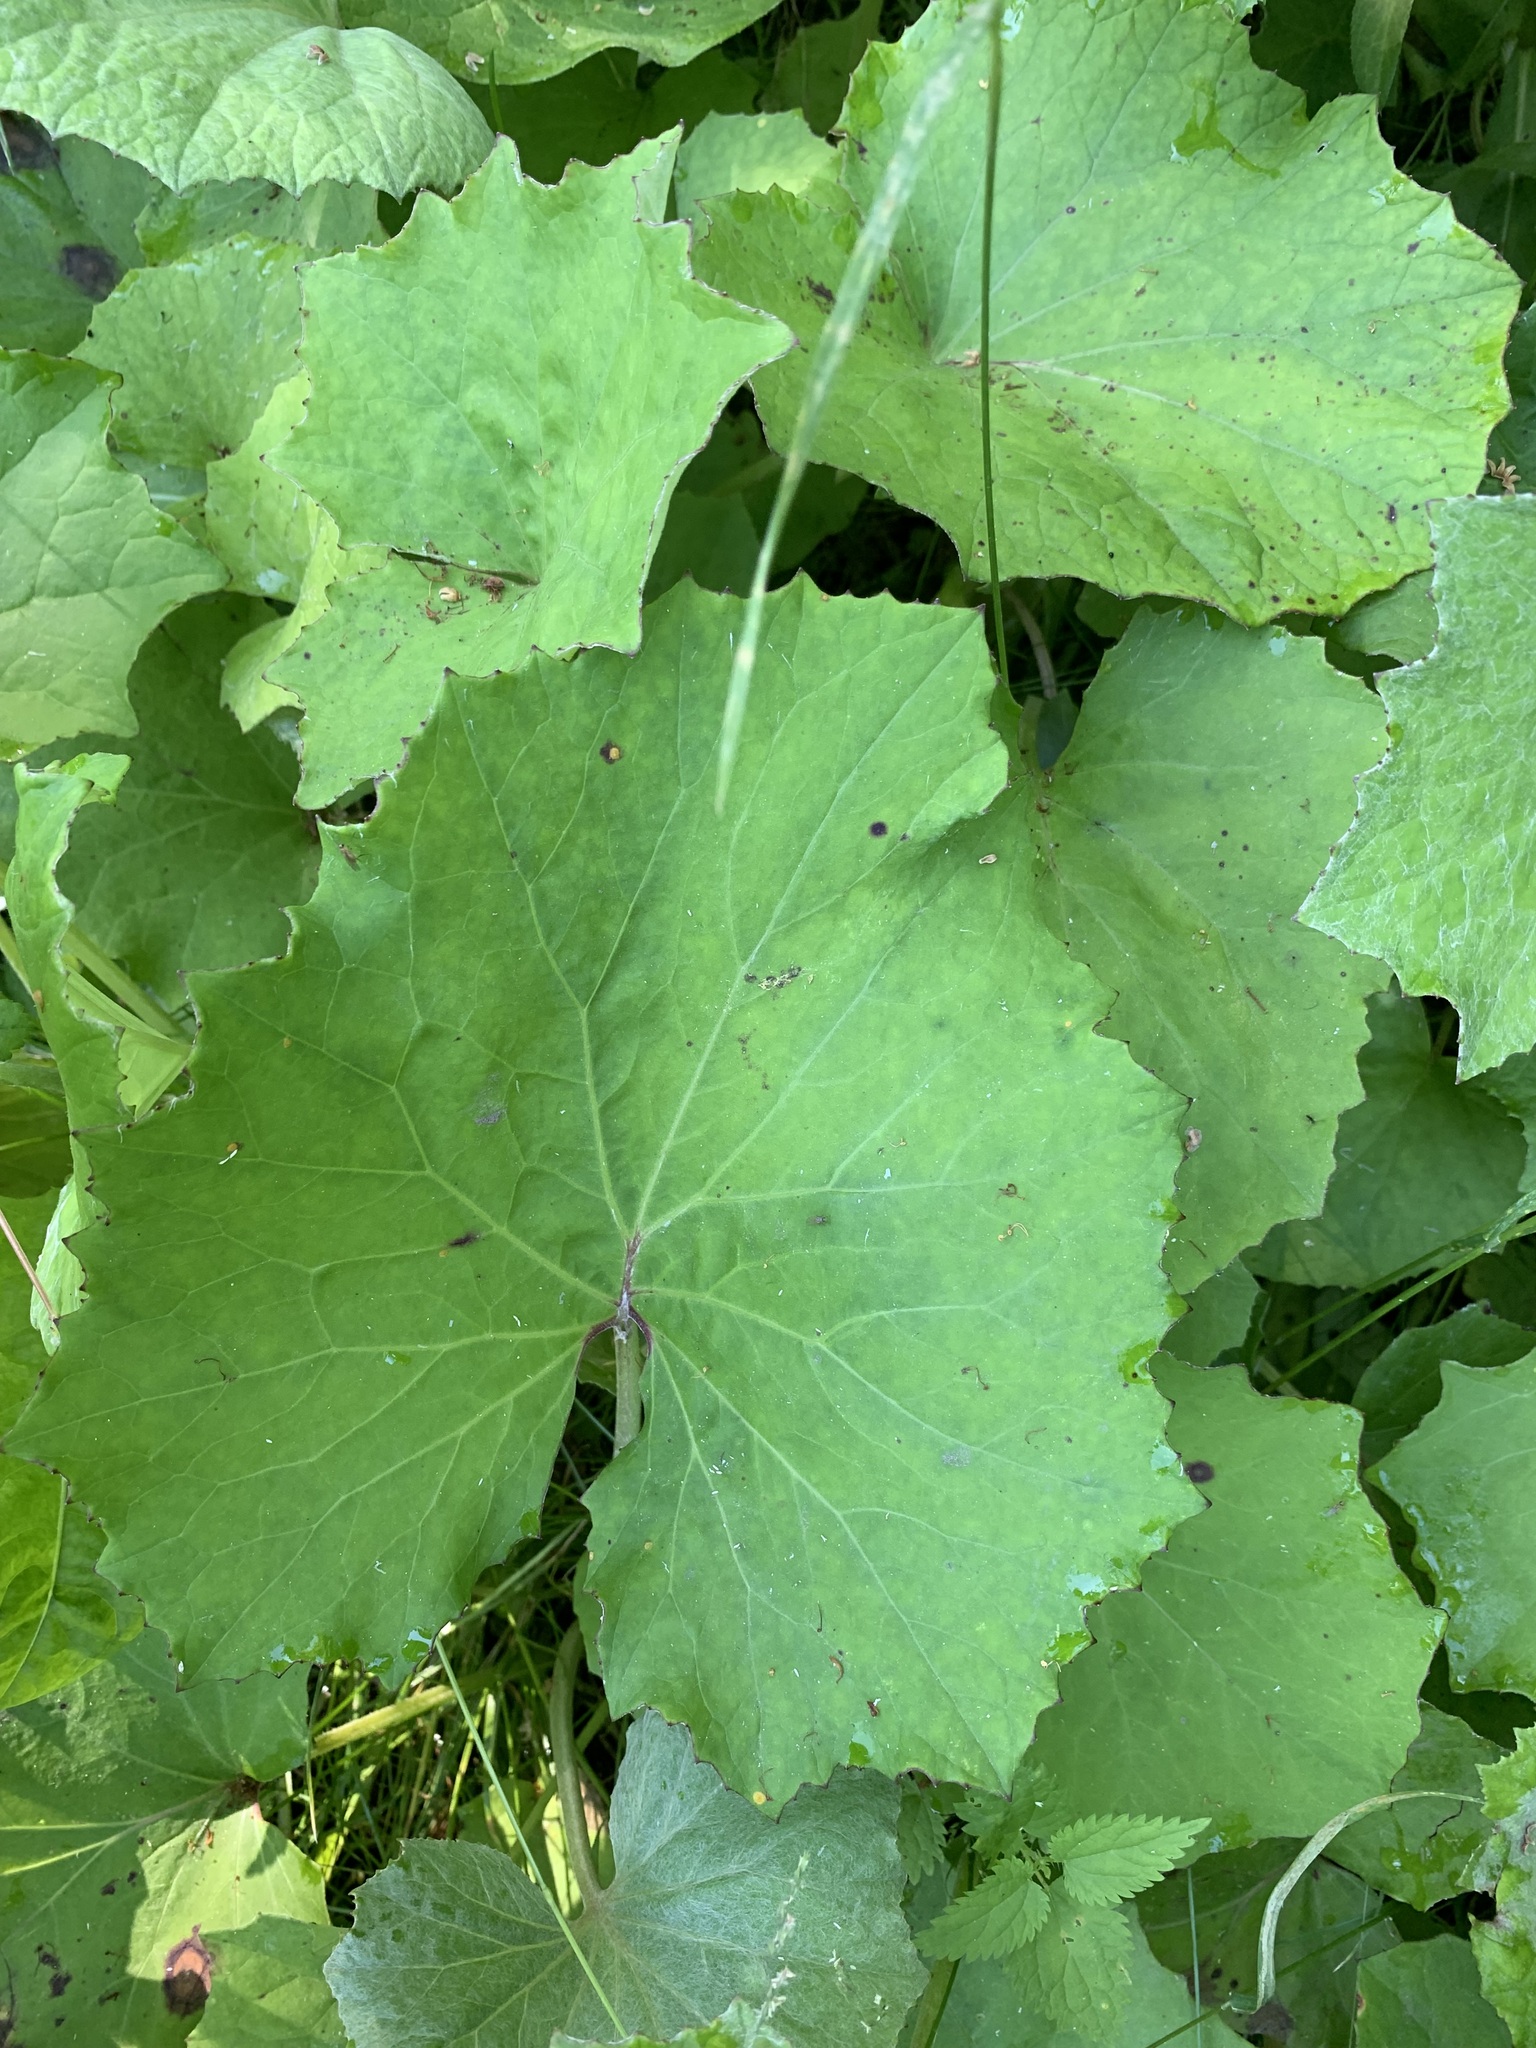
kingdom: Plantae
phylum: Tracheophyta
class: Magnoliopsida
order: Asterales
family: Asteraceae
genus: Tussilago
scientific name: Tussilago farfara
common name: Coltsfoot
